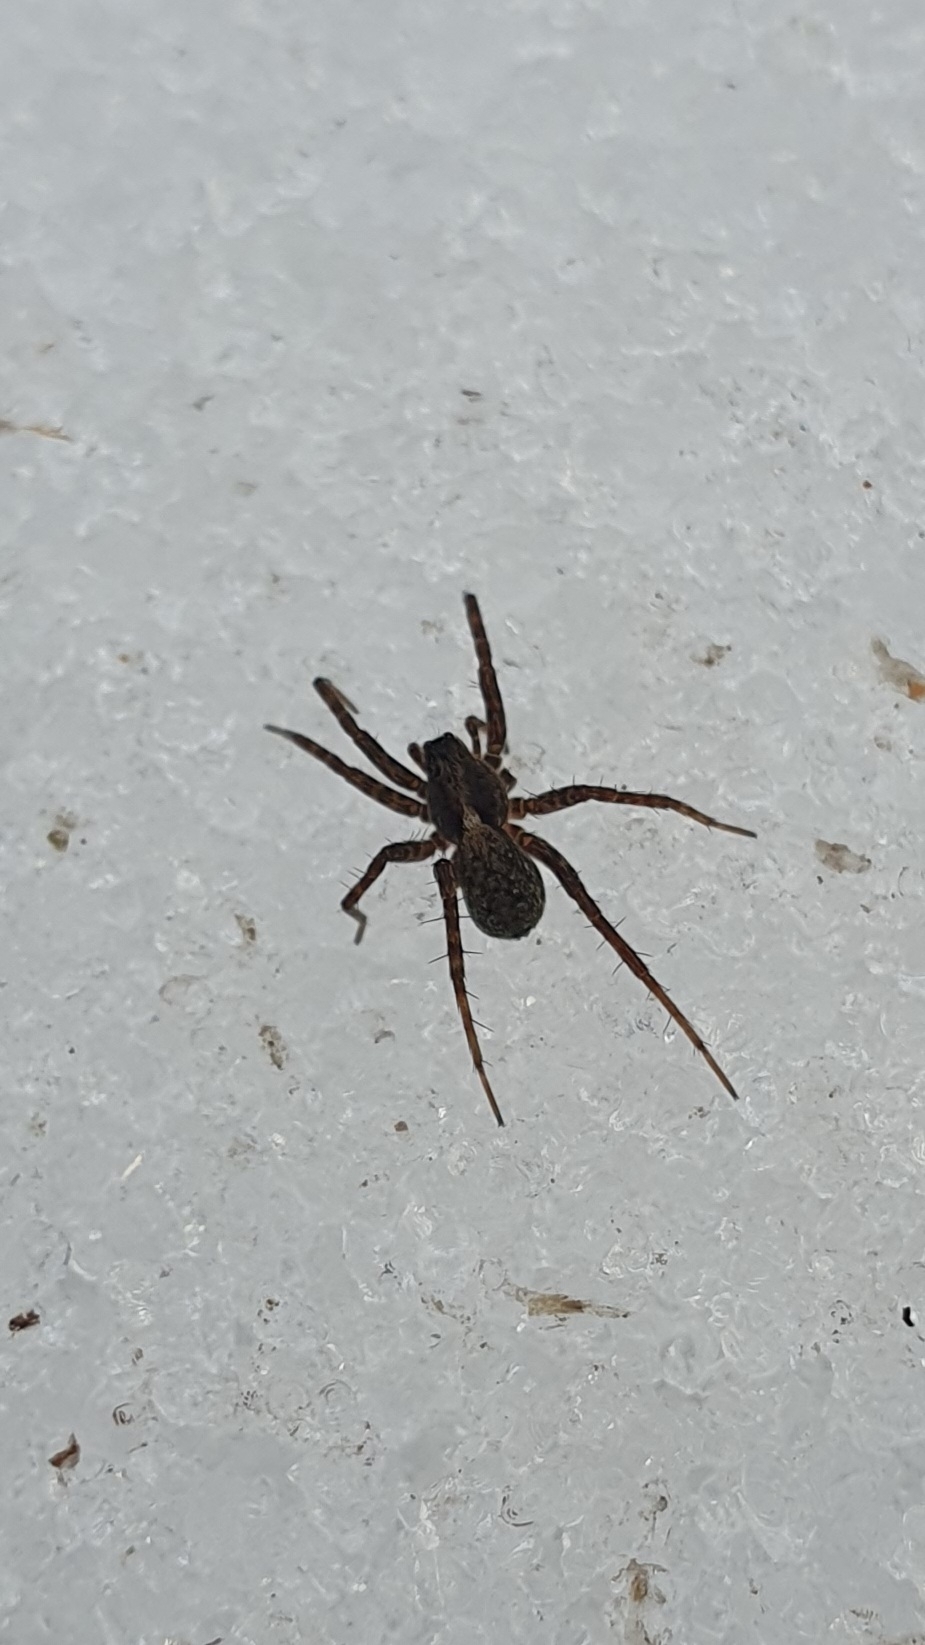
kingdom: Animalia
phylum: Arthropoda
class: Arachnida
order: Araneae
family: Lycosidae
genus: Pardosa
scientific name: Pardosa
